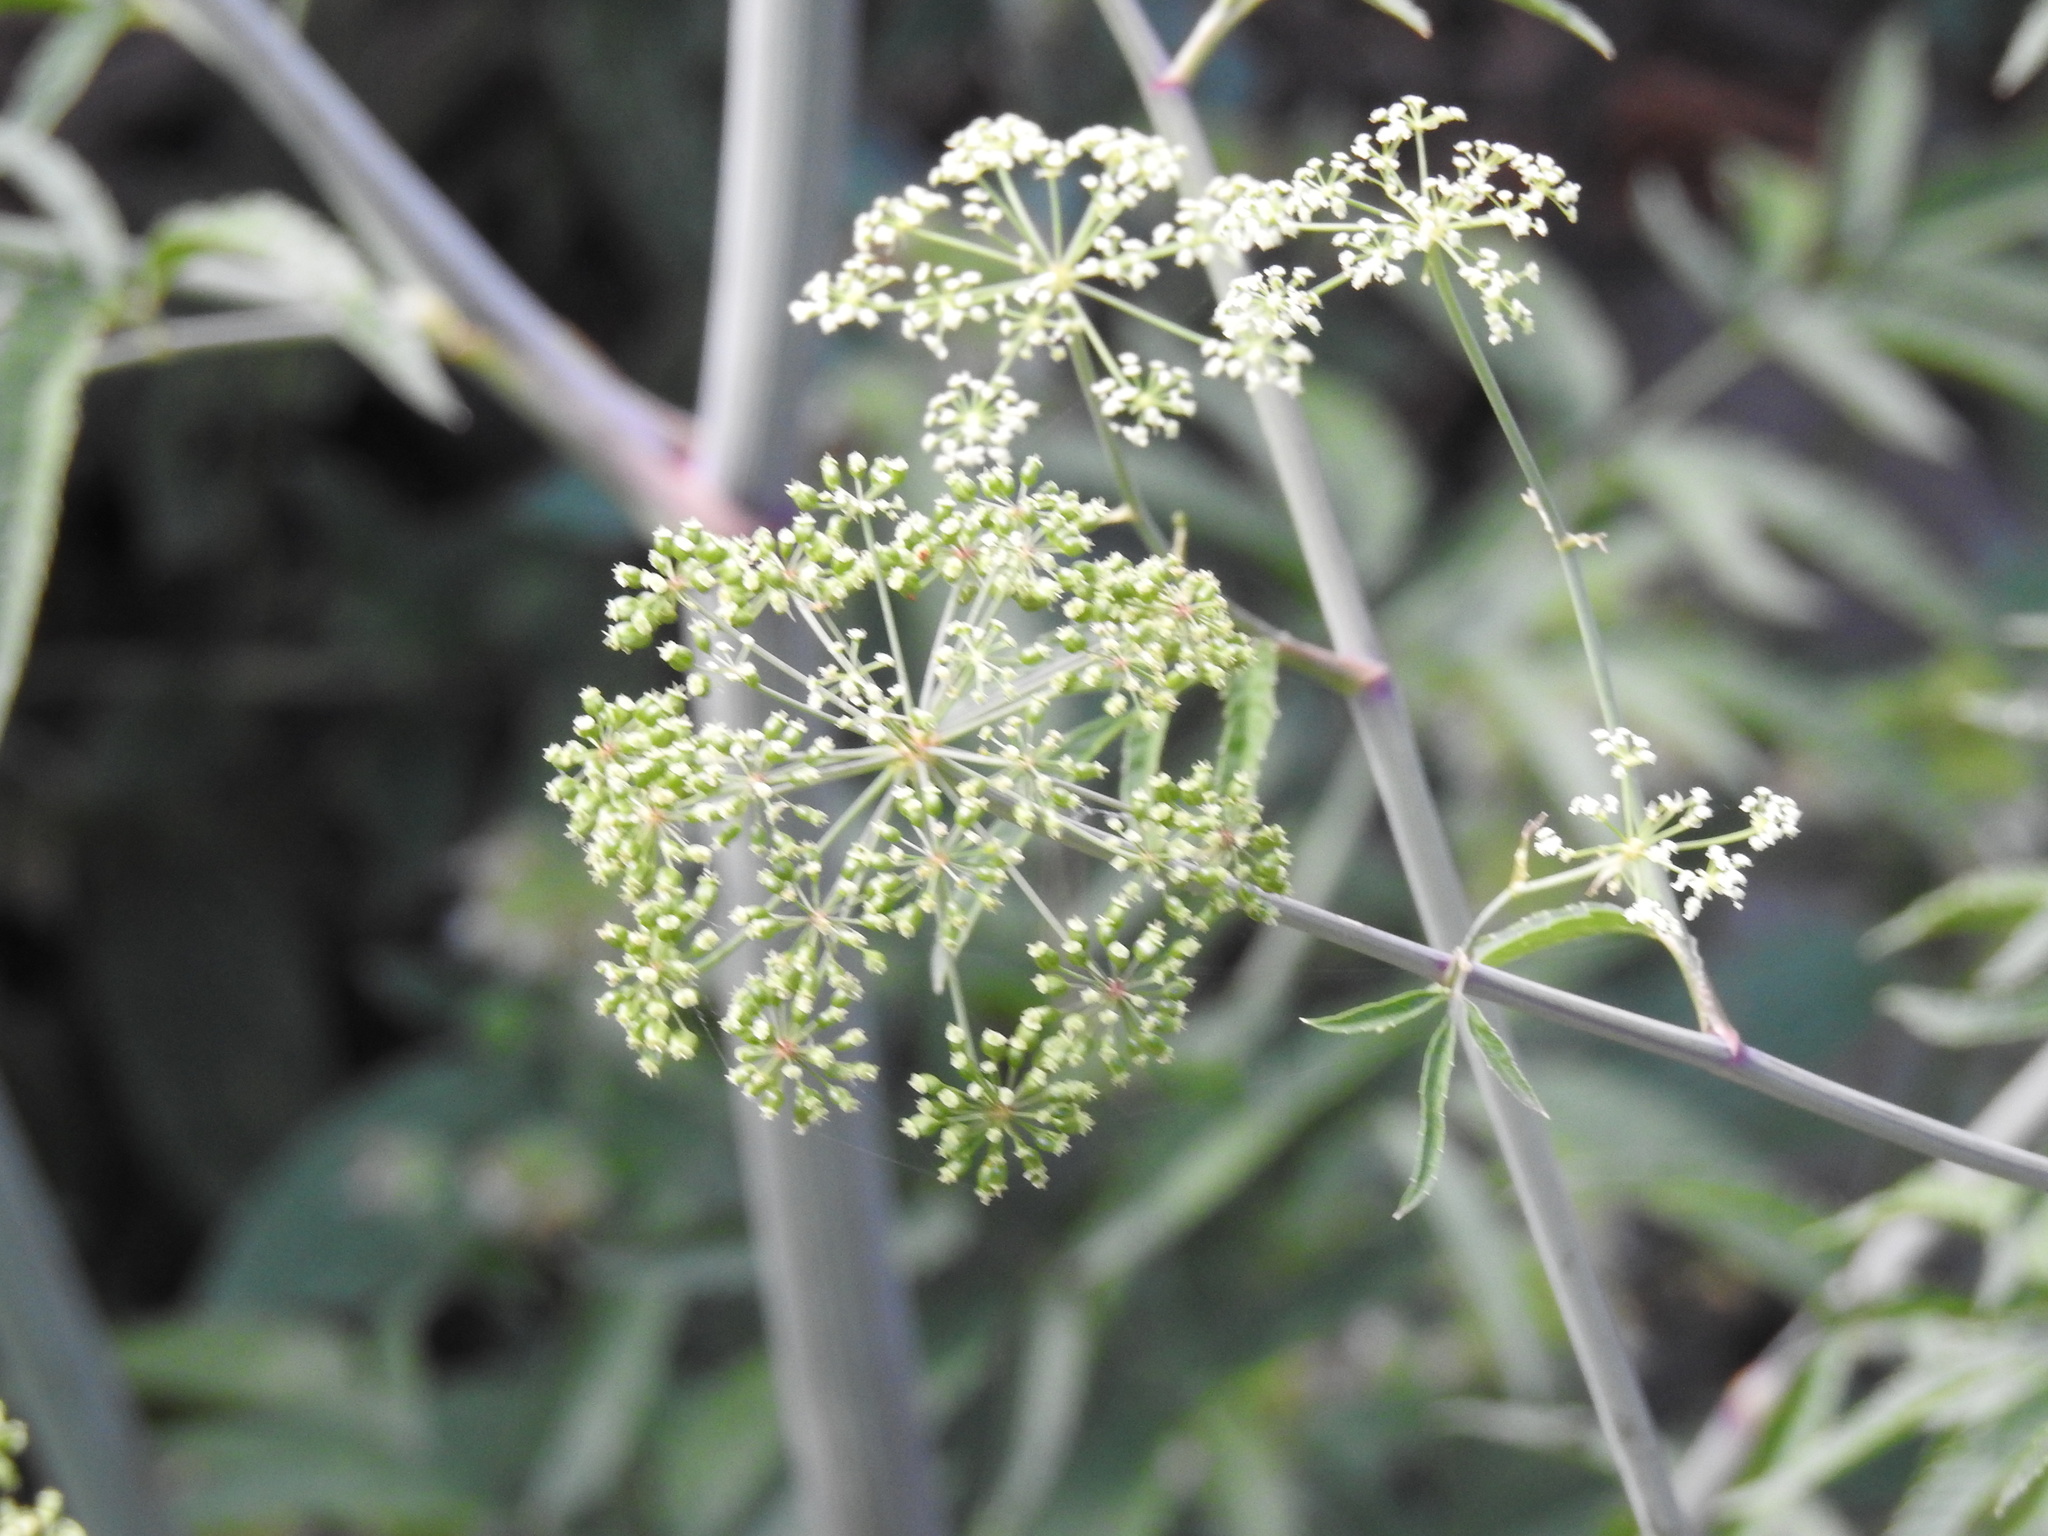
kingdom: Plantae
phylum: Tracheophyta
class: Magnoliopsida
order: Apiales
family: Apiaceae
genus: Cicuta
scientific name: Cicuta maculata
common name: Spotted cowbane
